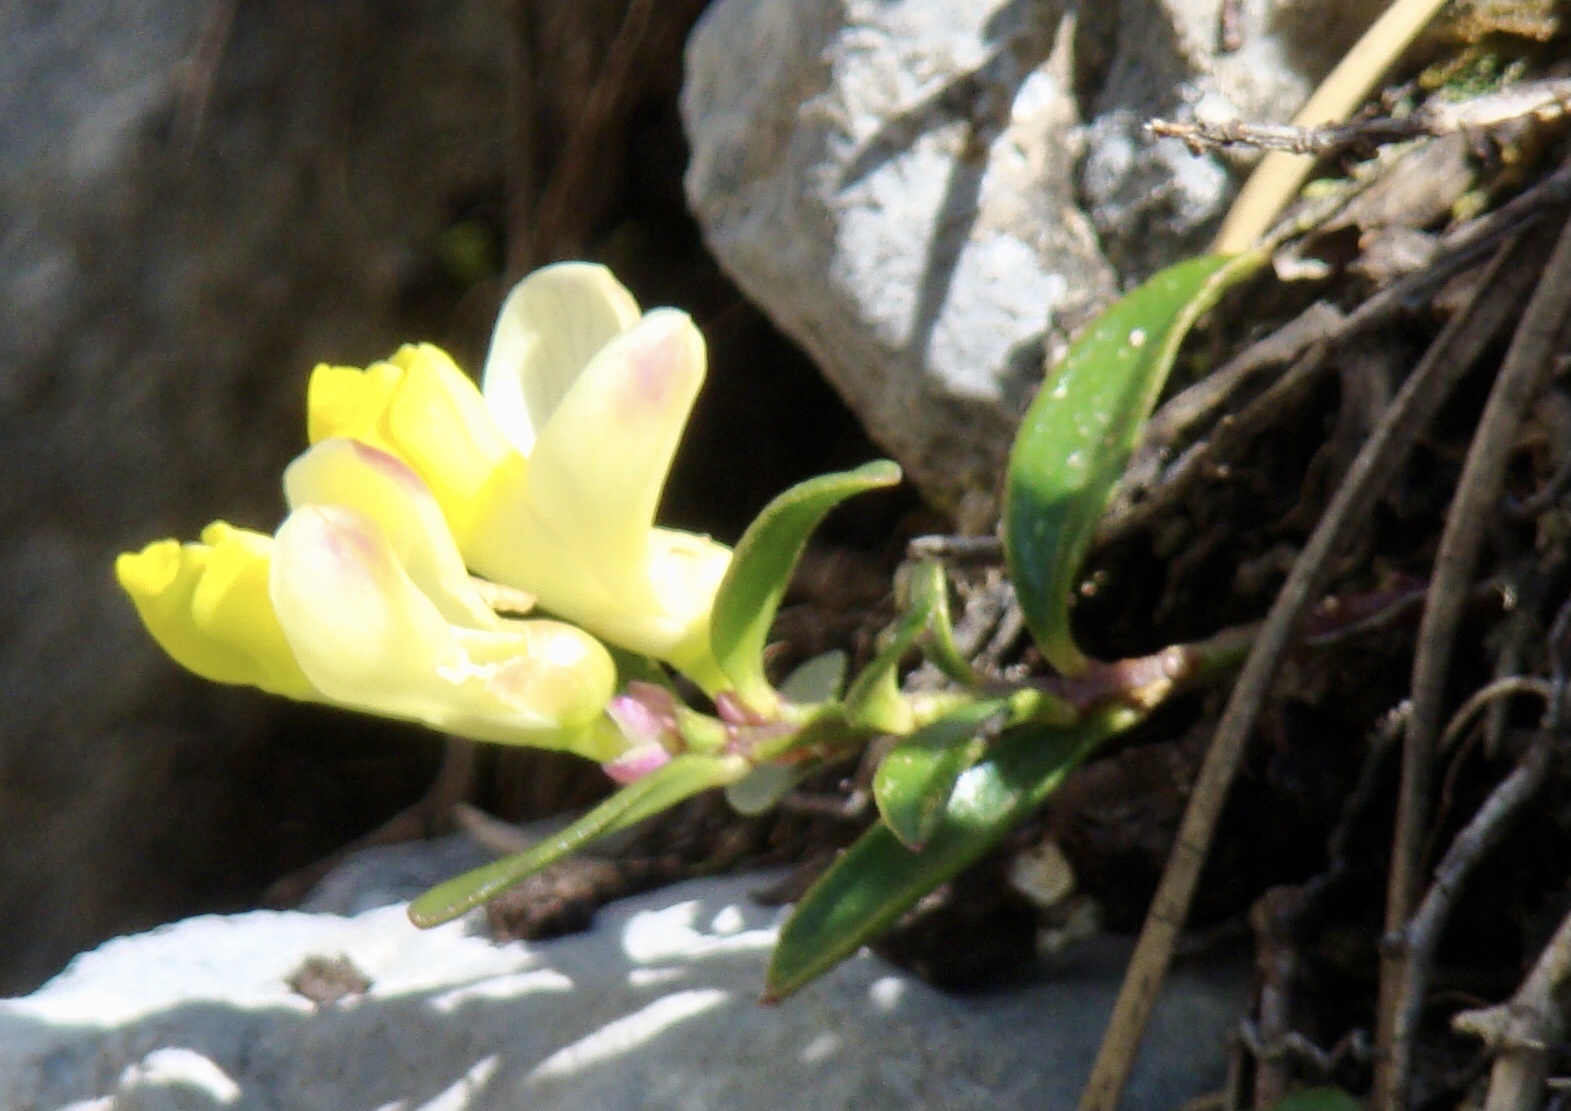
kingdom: Plantae
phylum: Tracheophyta
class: Magnoliopsida
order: Fabales
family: Polygalaceae
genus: Polygaloides
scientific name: Polygaloides chamaebuxus
